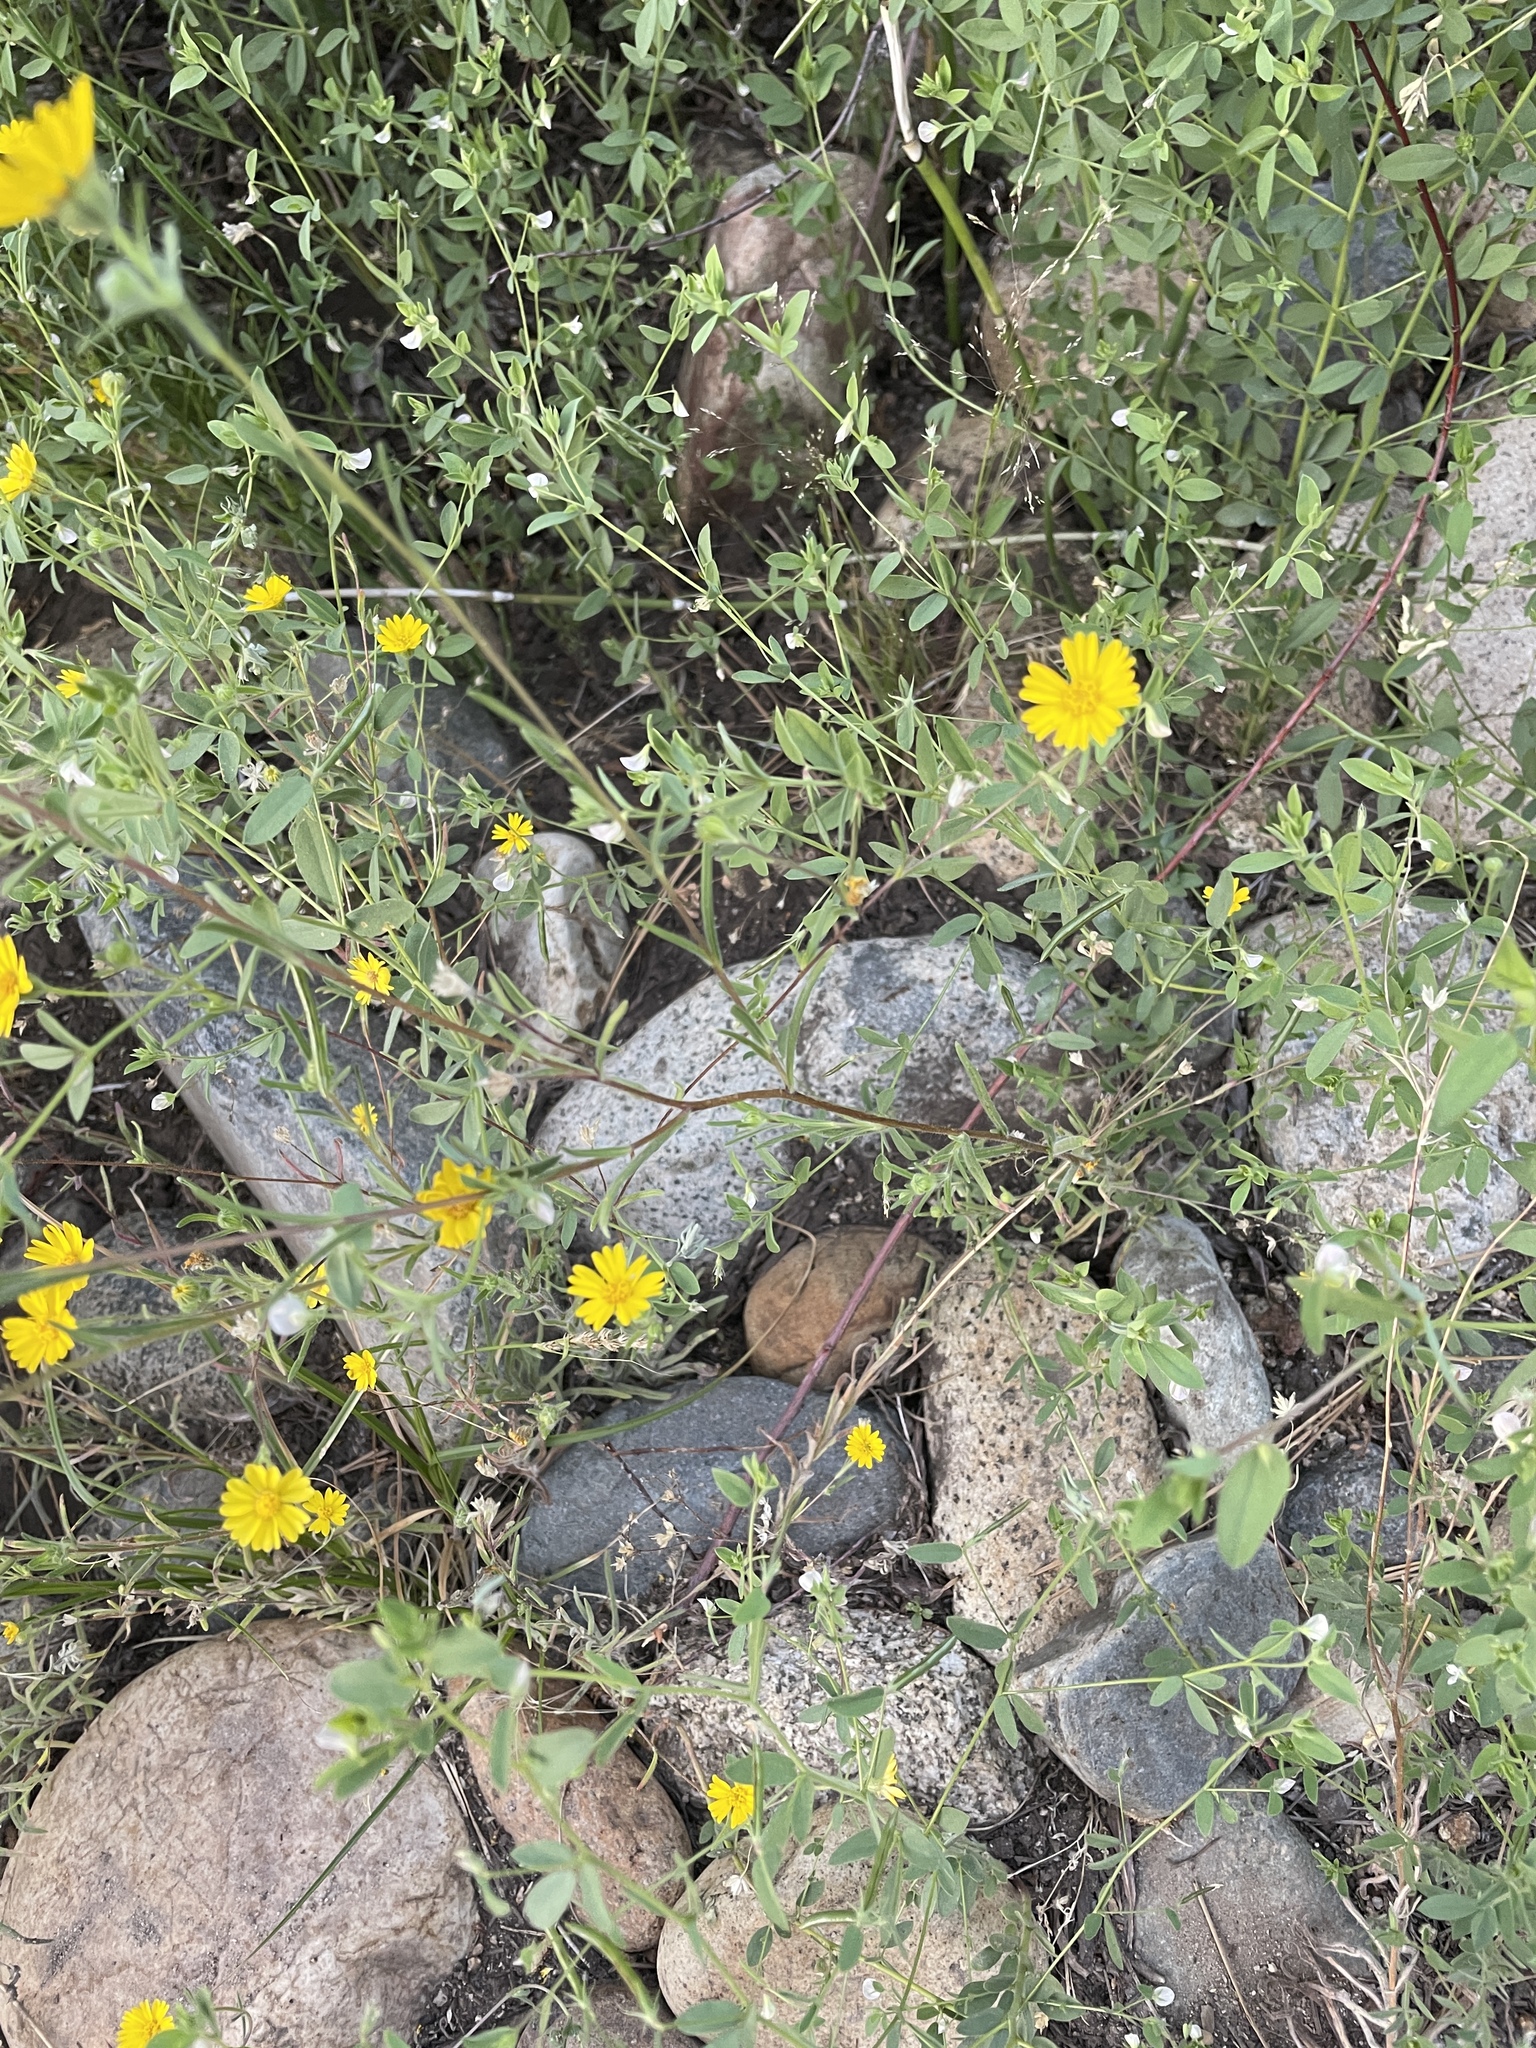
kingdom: Plantae
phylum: Tracheophyta
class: Magnoliopsida
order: Asterales
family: Asteraceae
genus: Madia
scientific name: Madia elegans
